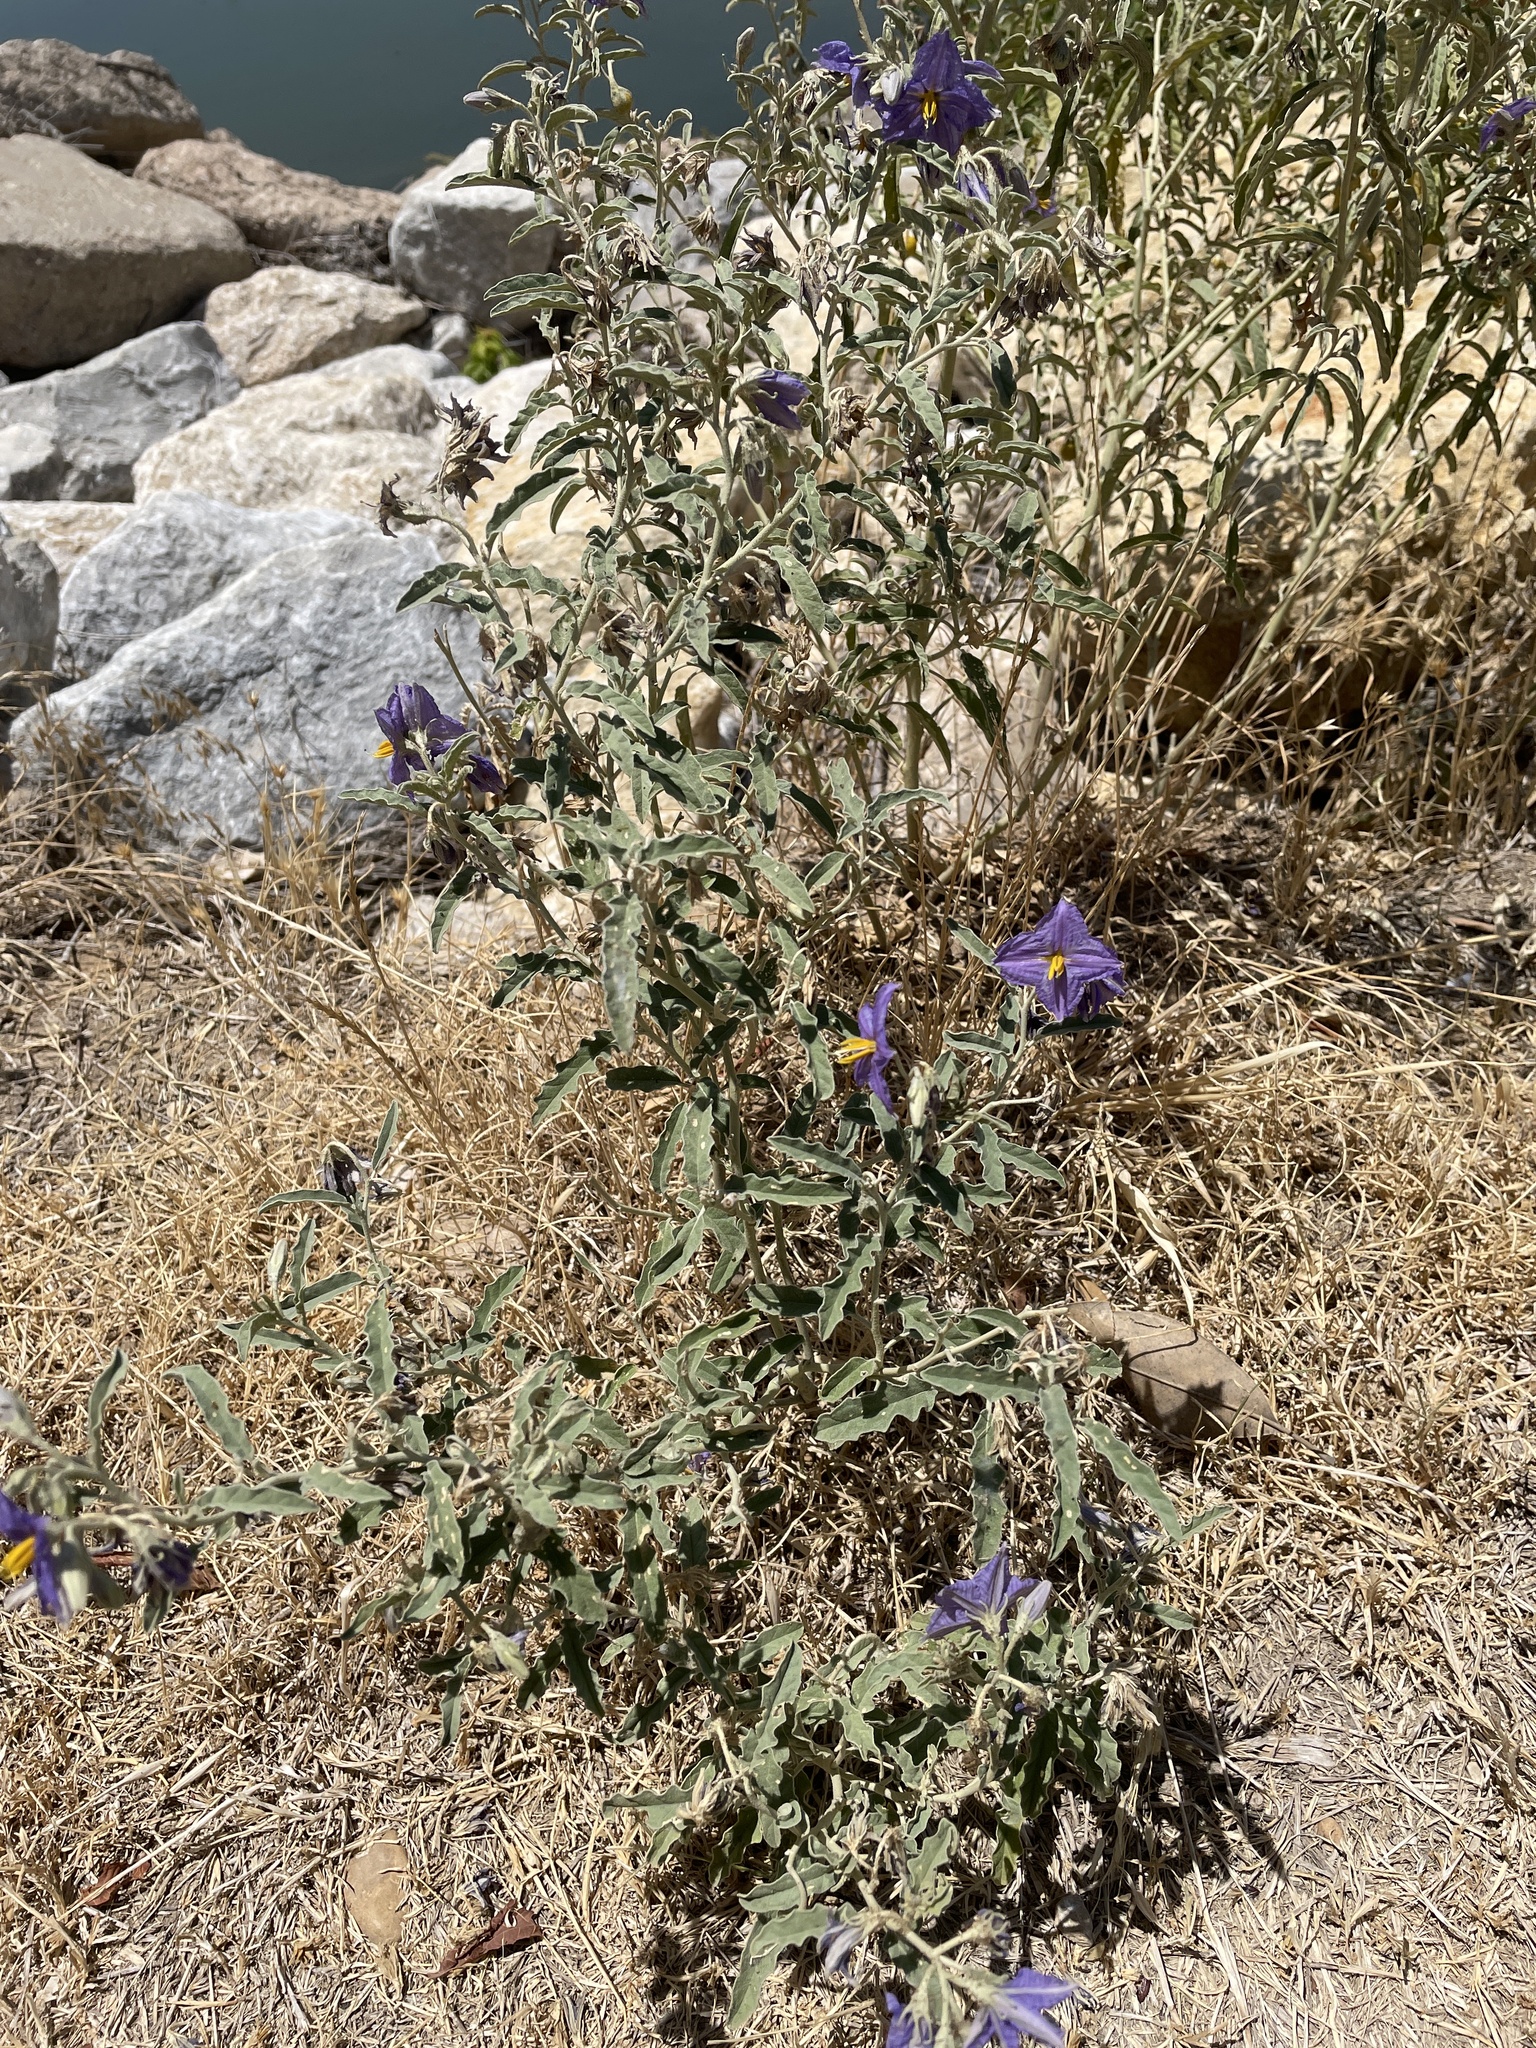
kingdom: Plantae
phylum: Tracheophyta
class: Magnoliopsida
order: Solanales
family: Solanaceae
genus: Solanum
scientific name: Solanum elaeagnifolium
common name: Silverleaf nightshade
